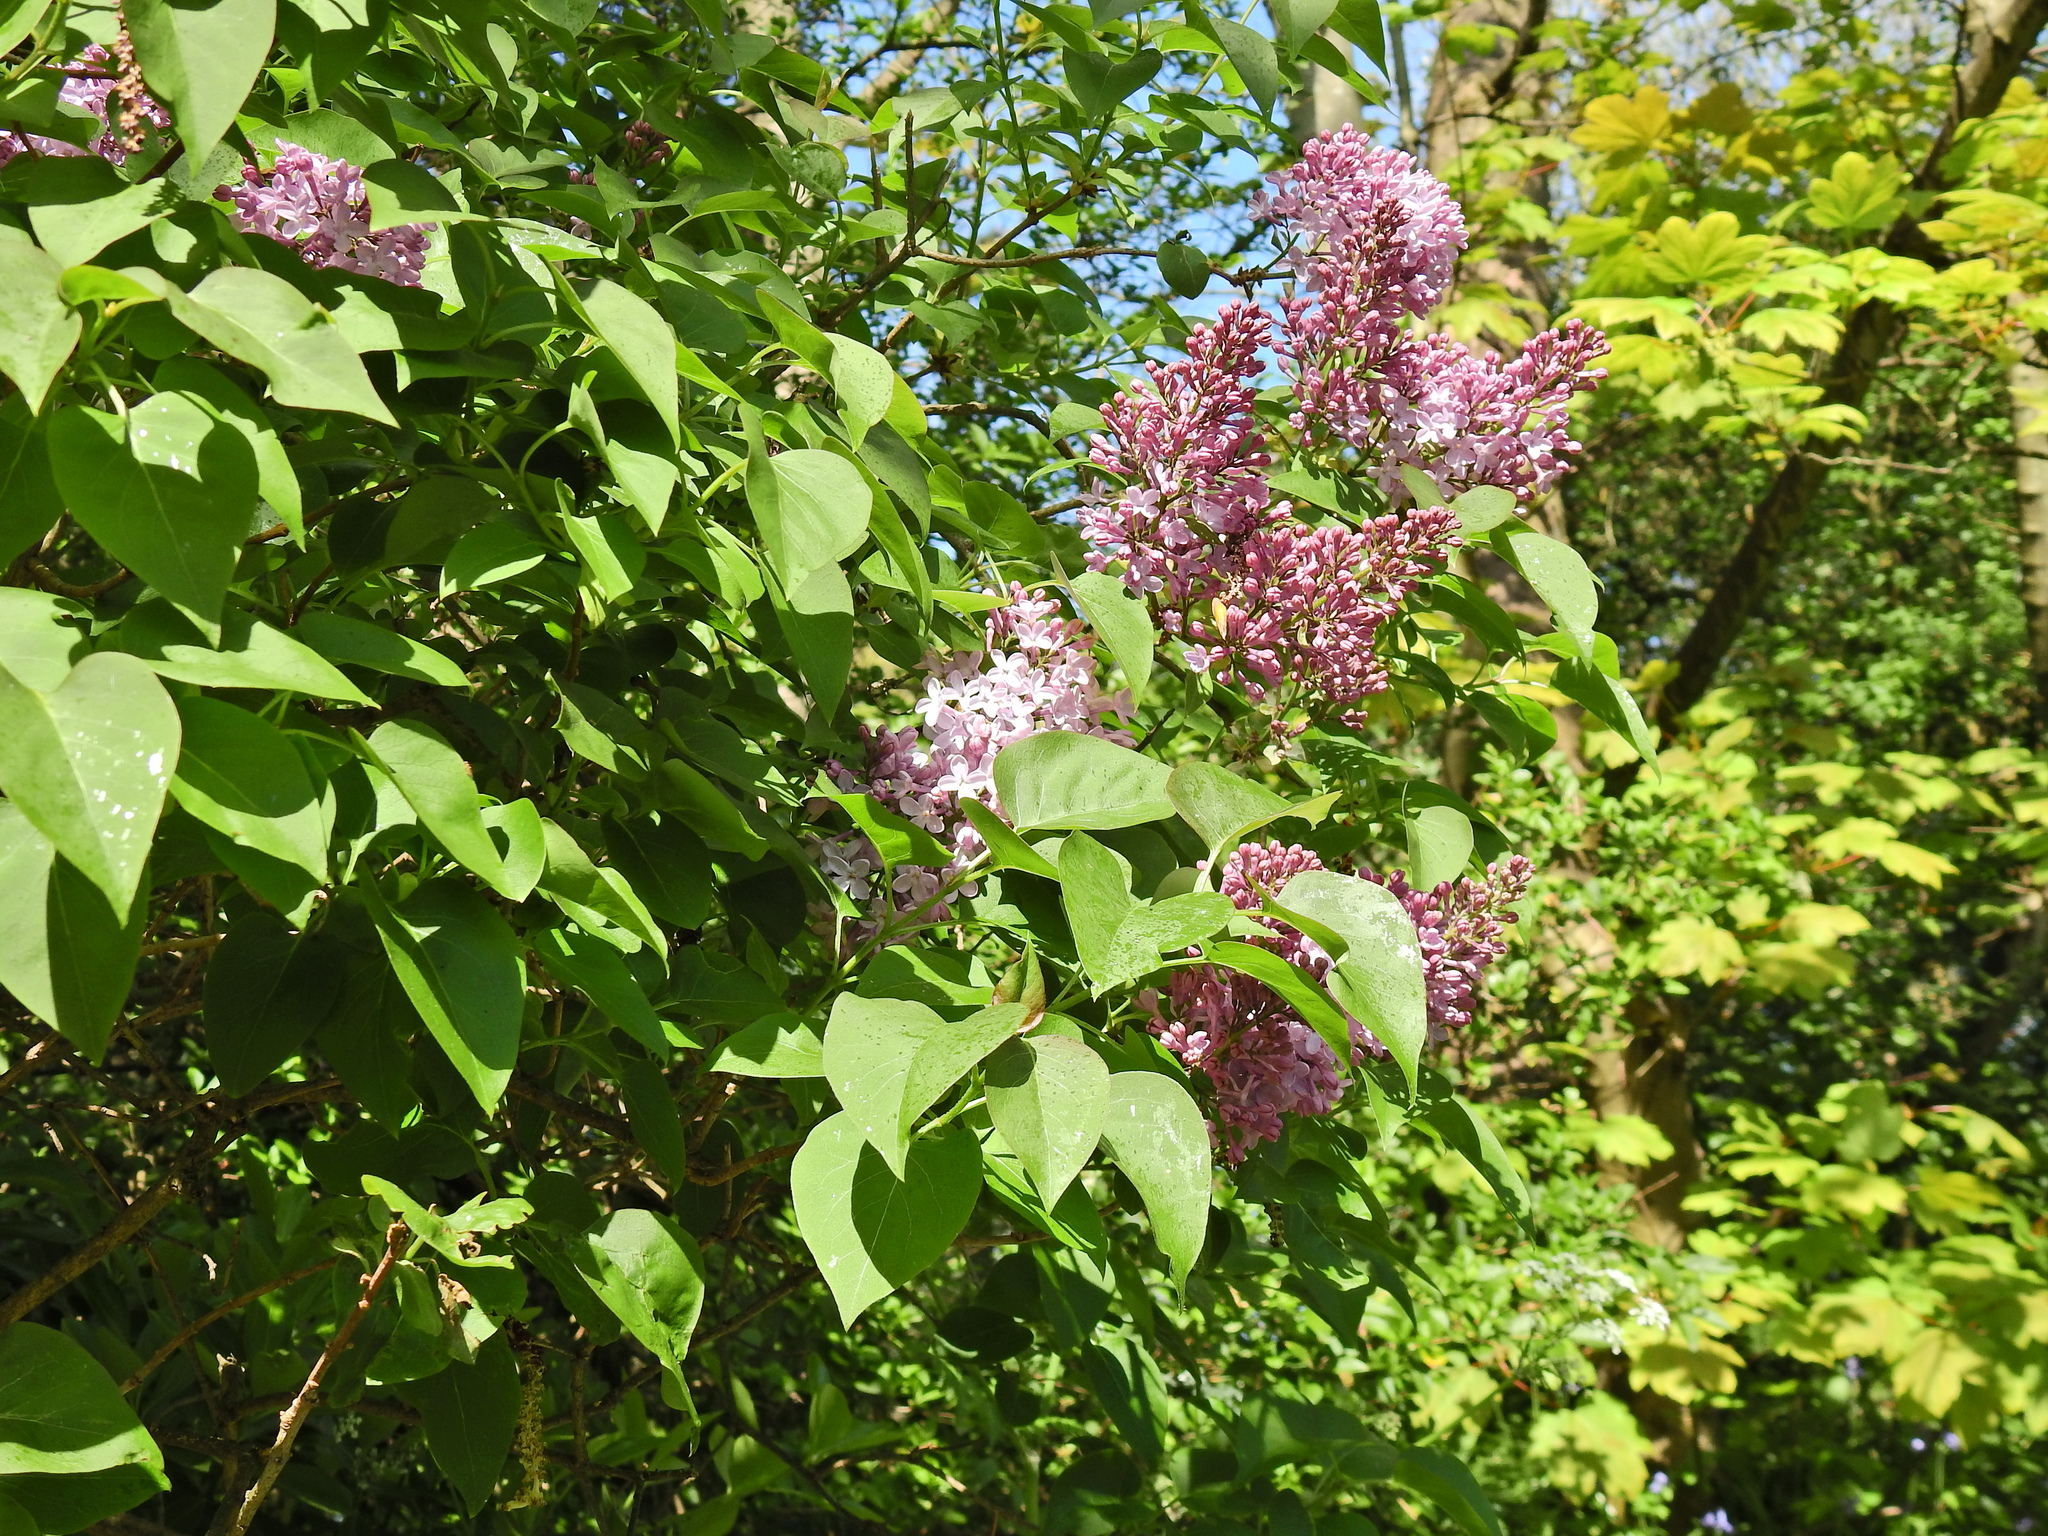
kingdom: Plantae
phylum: Tracheophyta
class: Magnoliopsida
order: Lamiales
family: Oleaceae
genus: Syringa
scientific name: Syringa vulgaris
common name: Common lilac
